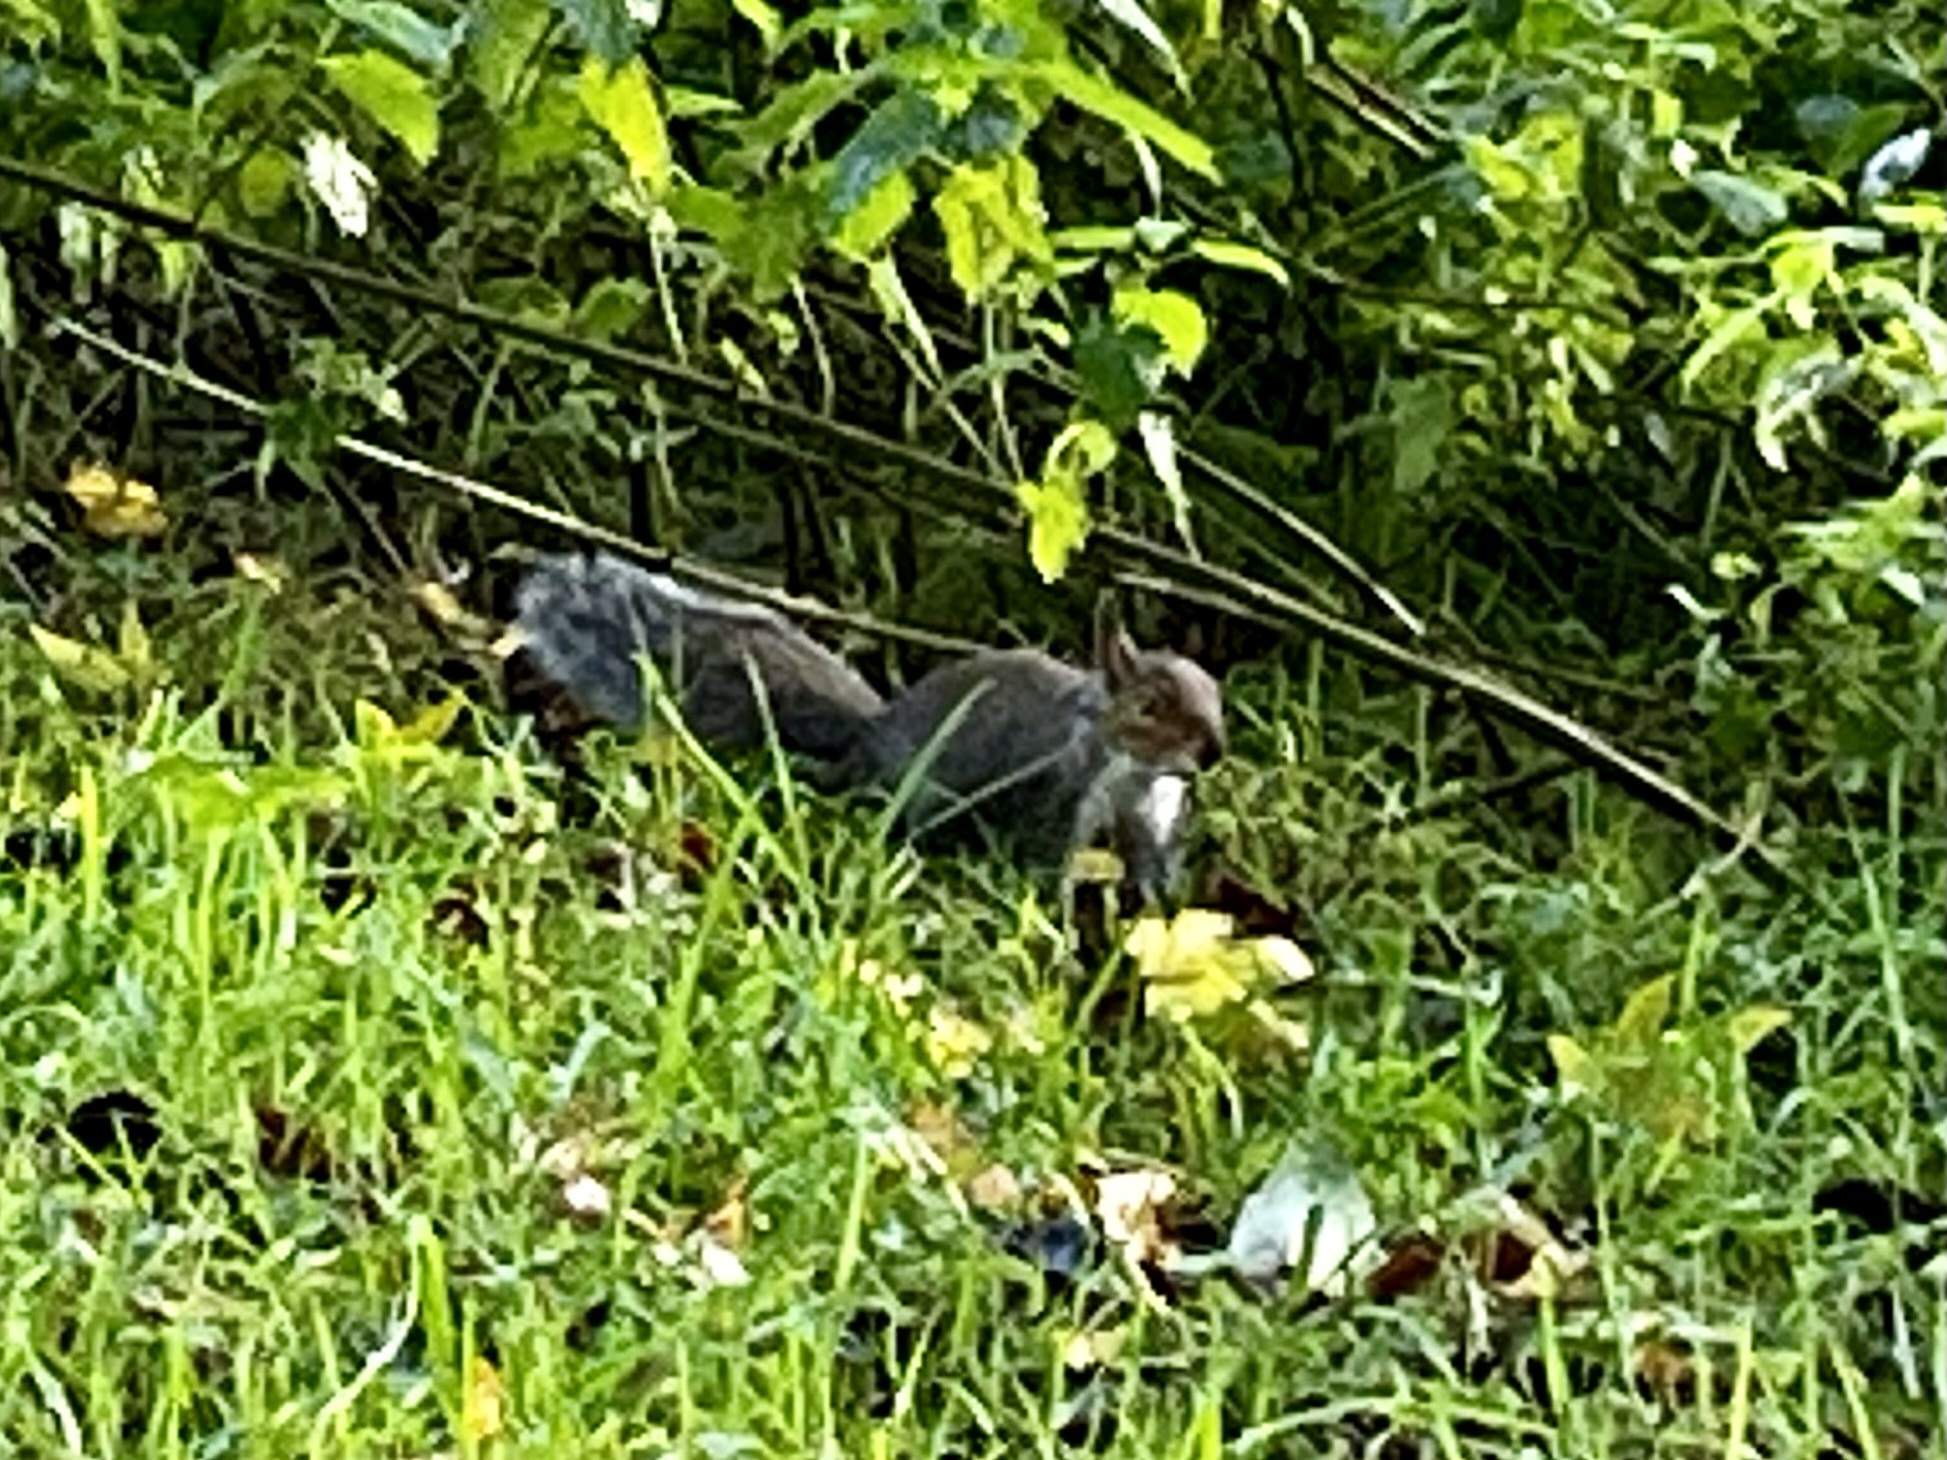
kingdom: Animalia
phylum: Chordata
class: Mammalia
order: Rodentia
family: Sciuridae
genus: Sciurus
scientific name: Sciurus carolinensis
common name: Eastern gray squirrel
